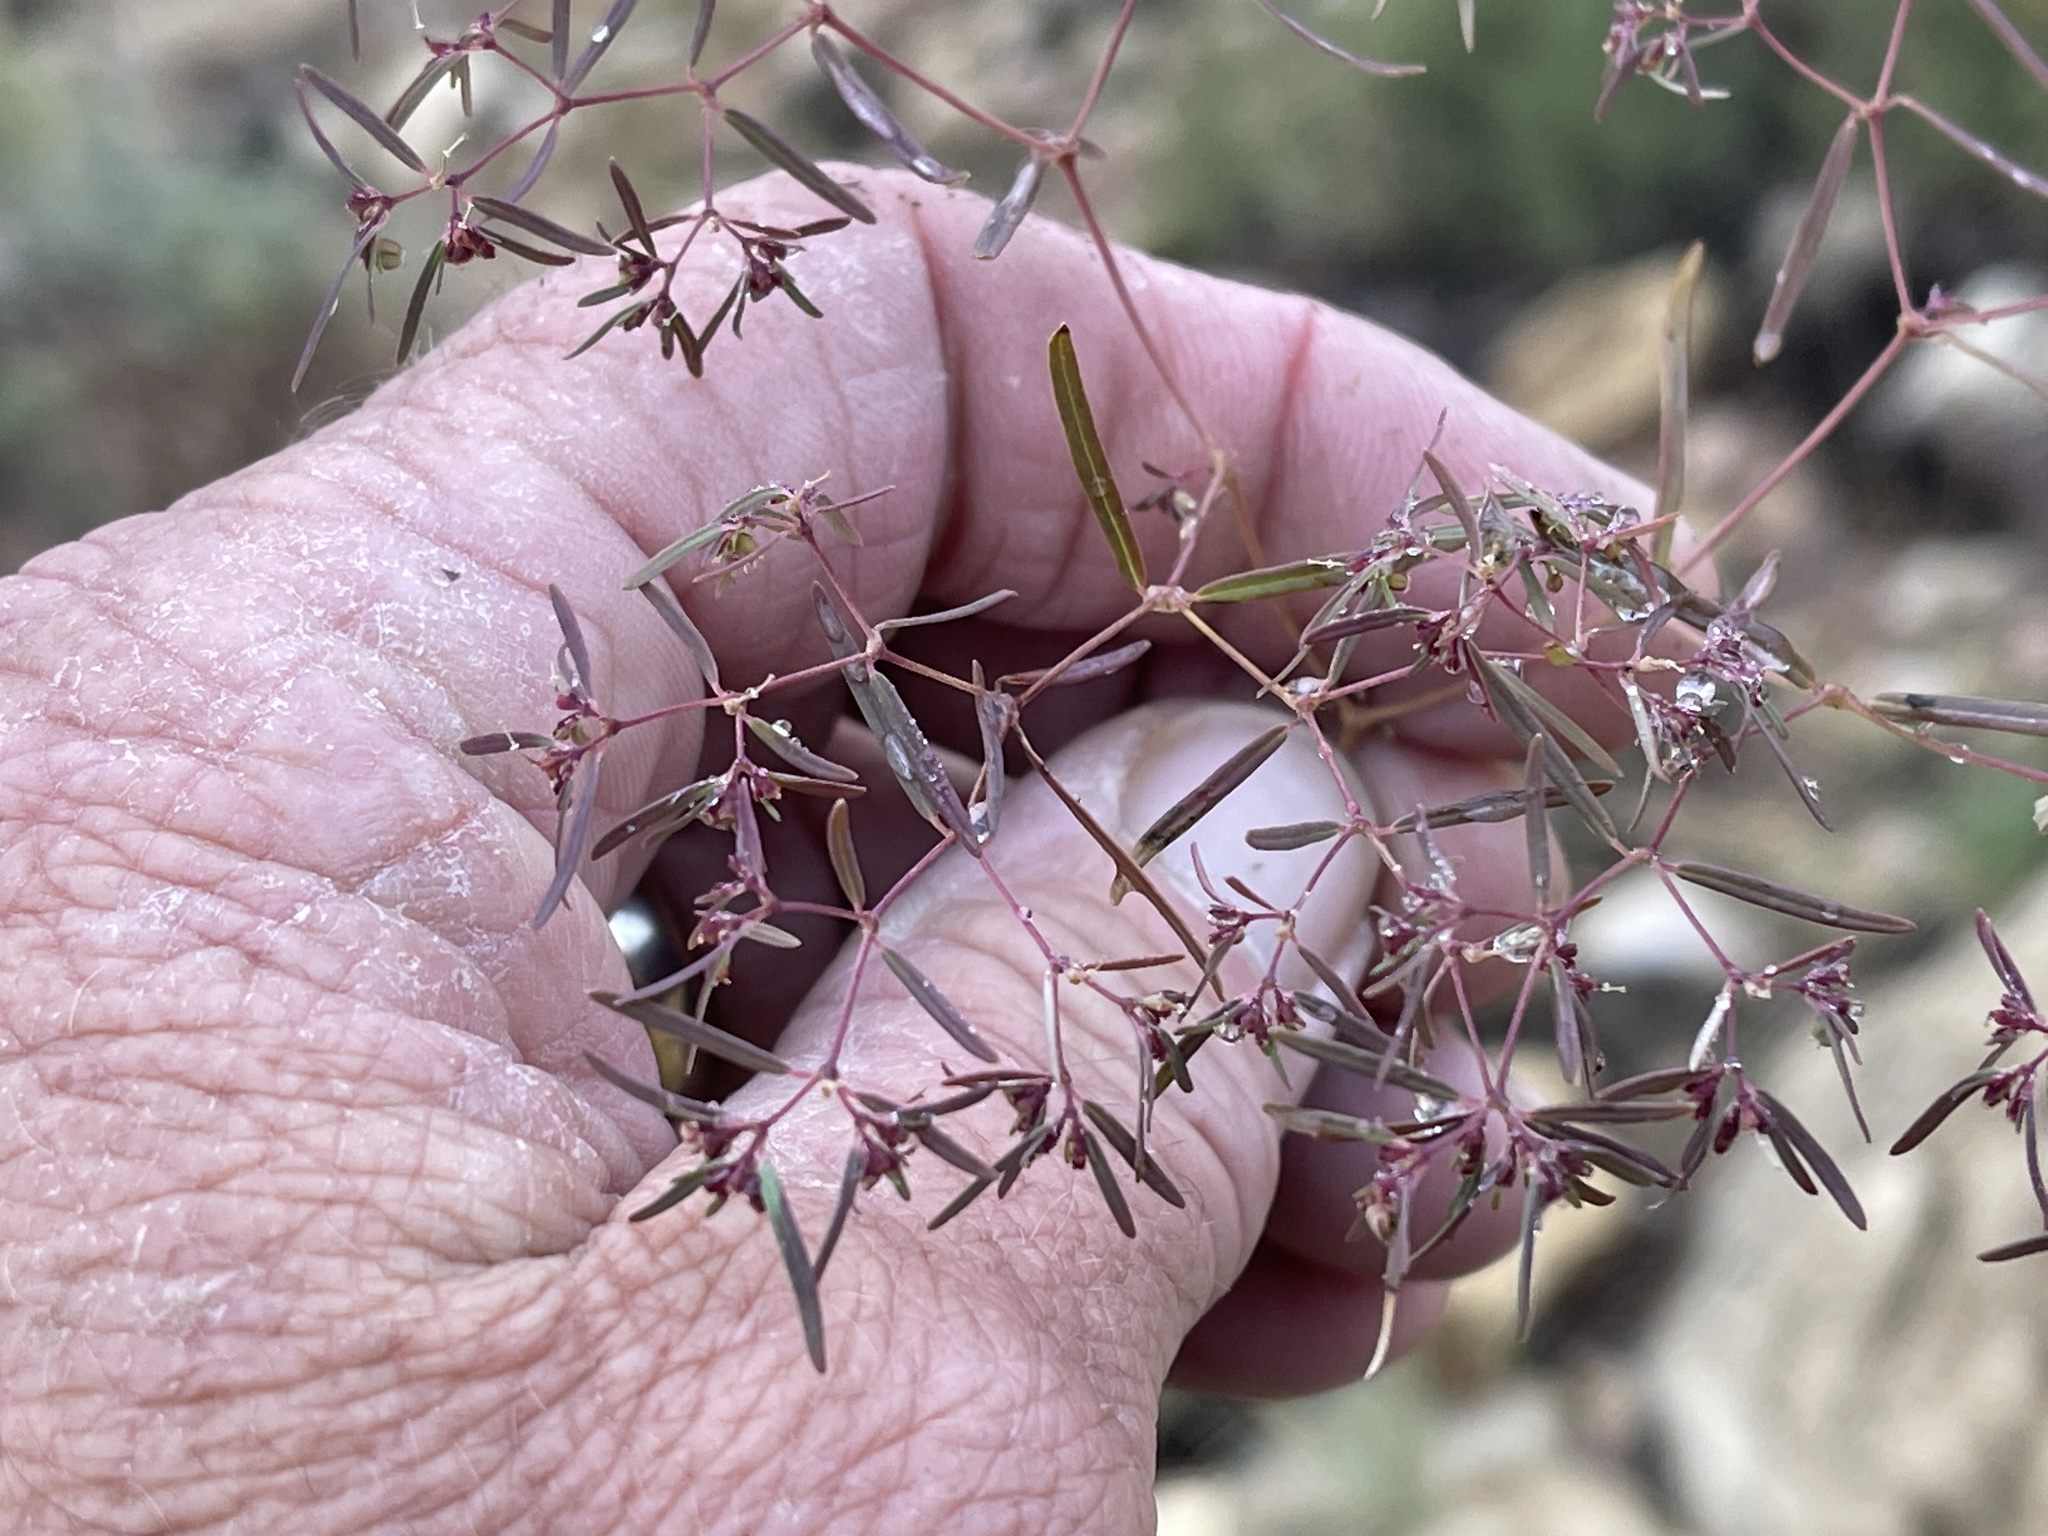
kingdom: Plantae
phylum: Tracheophyta
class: Magnoliopsida
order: Malpighiales
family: Euphorbiaceae
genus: Euphorbia
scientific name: Euphorbia revoluta
